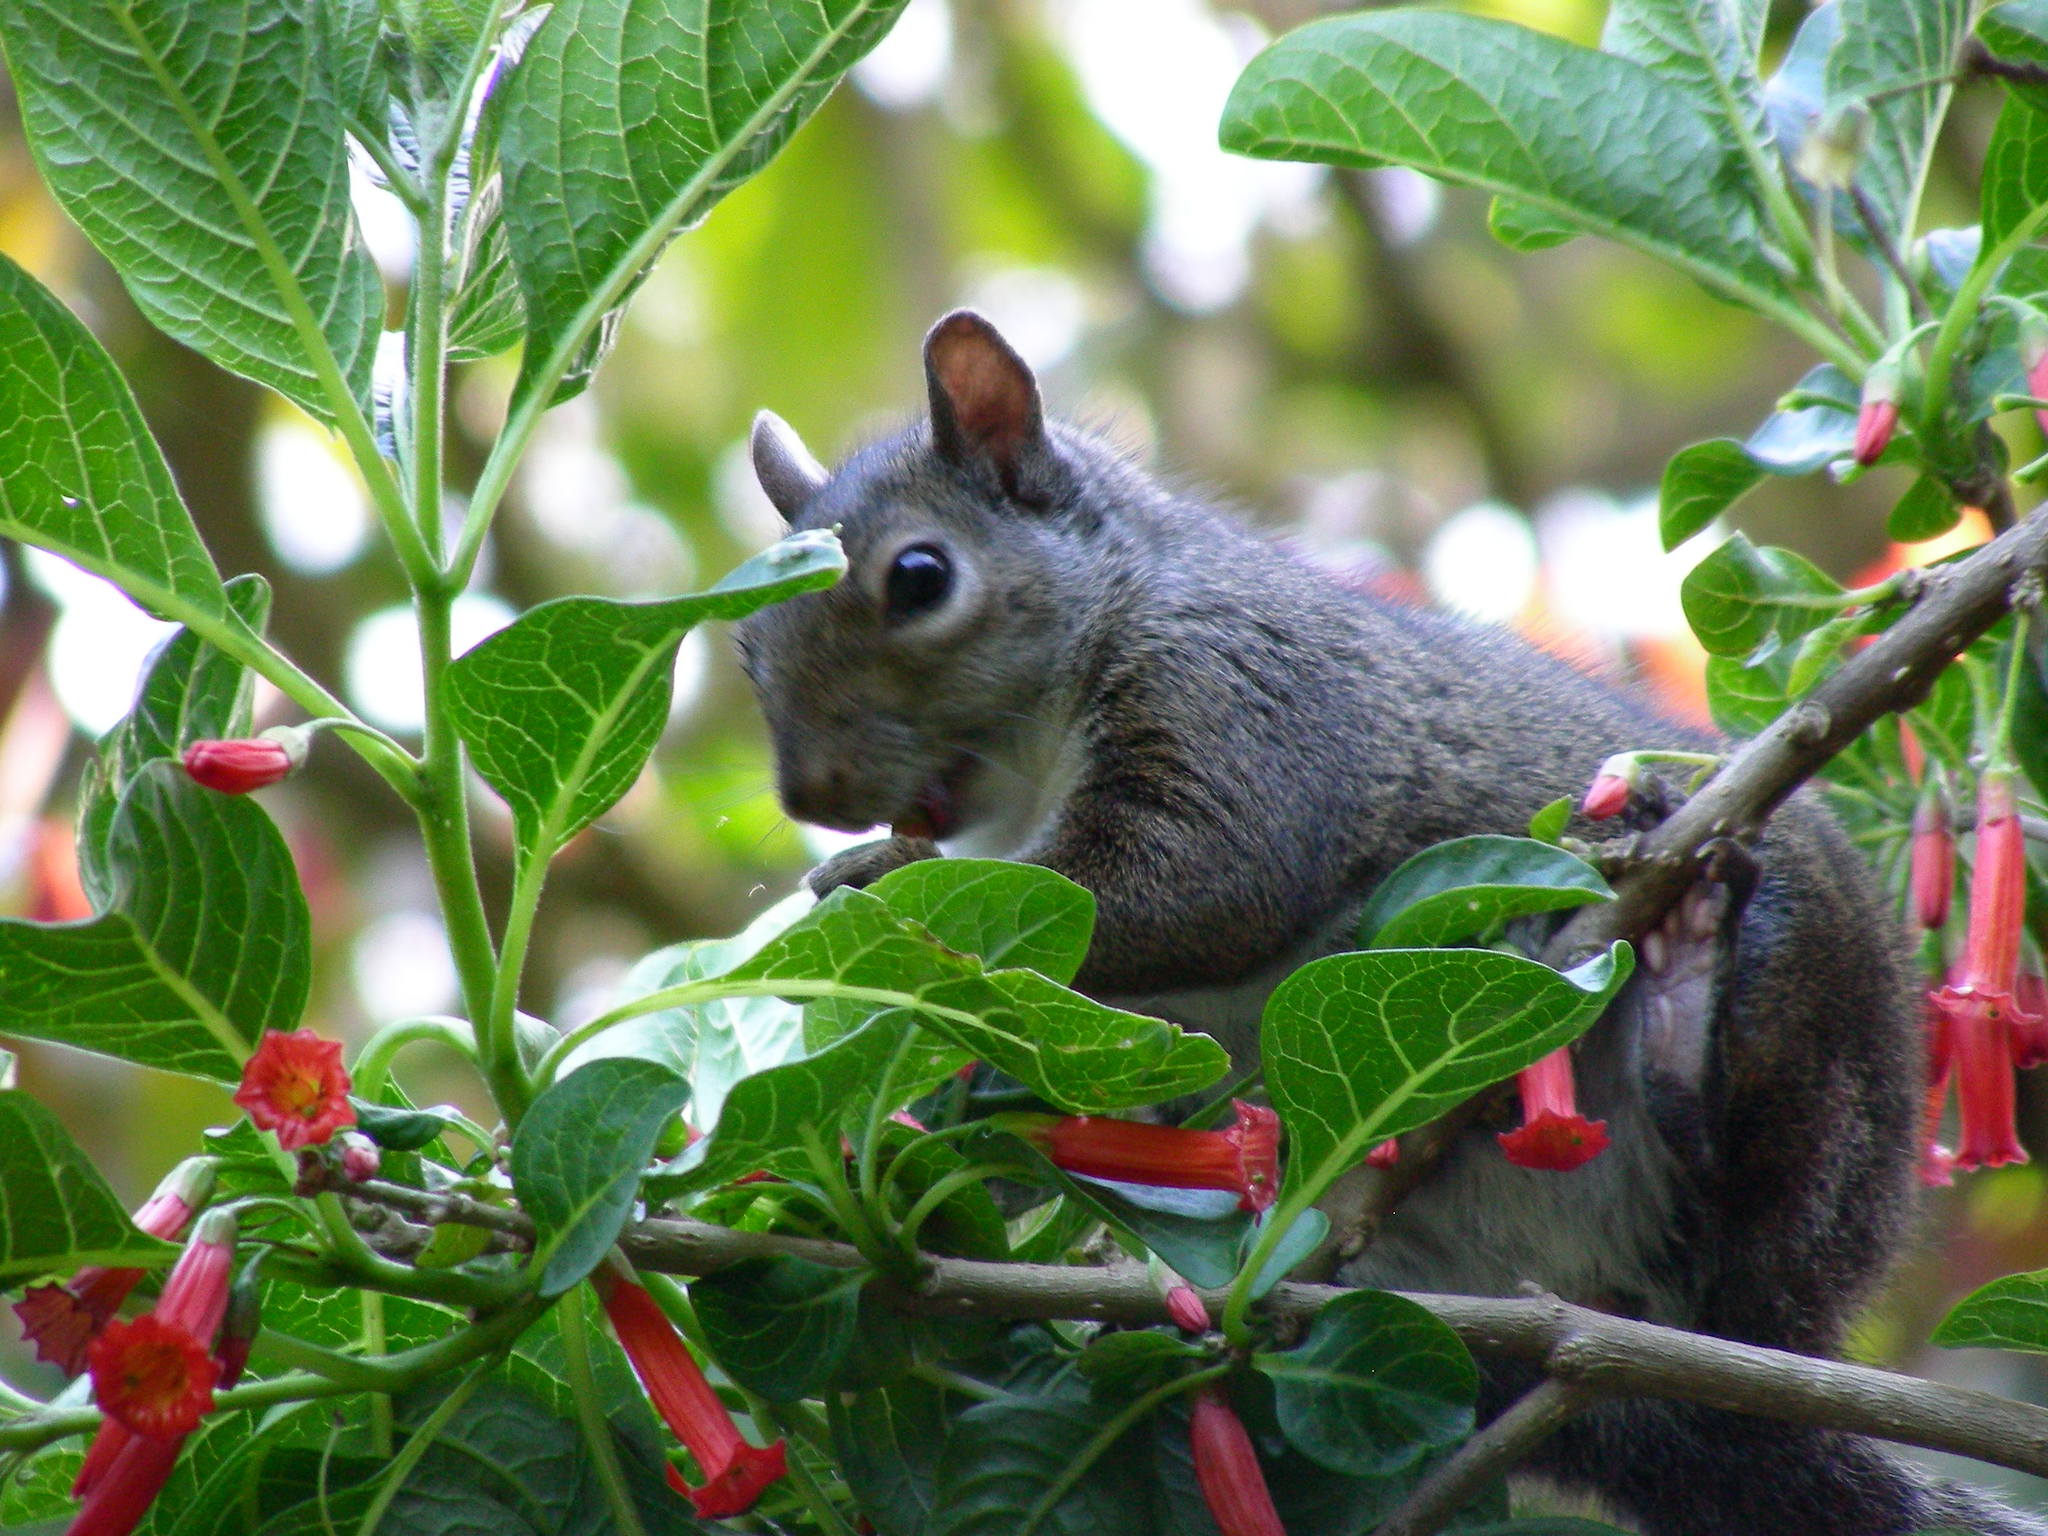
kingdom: Animalia
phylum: Chordata
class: Mammalia
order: Rodentia
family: Sciuridae
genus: Sciurus
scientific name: Sciurus carolinensis
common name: Eastern gray squirrel
